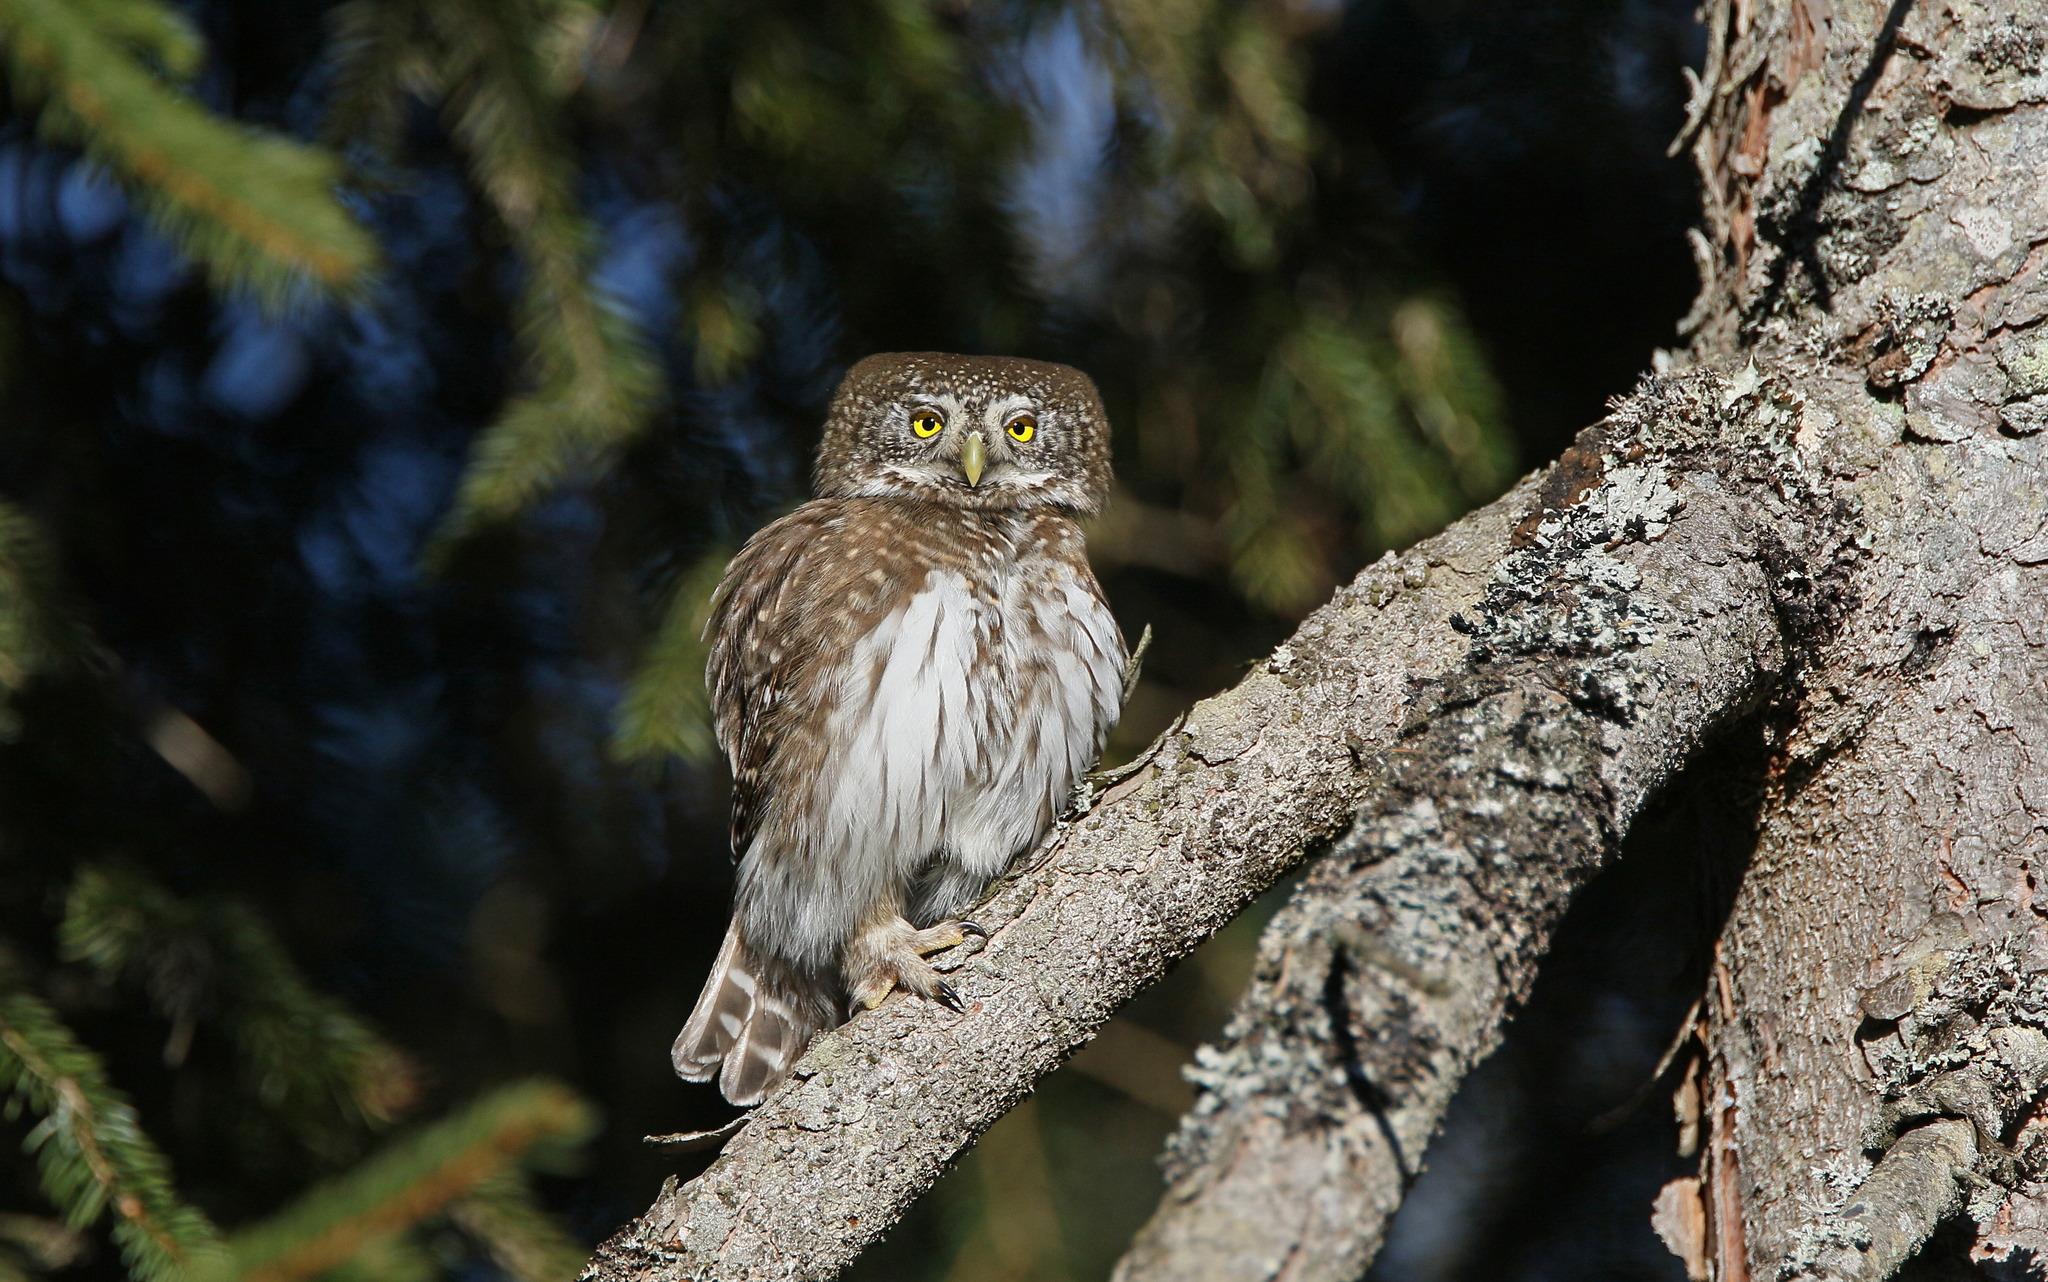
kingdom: Animalia
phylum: Chordata
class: Aves
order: Strigiformes
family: Strigidae
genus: Glaucidium
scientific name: Glaucidium passerinum
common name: Eurasian pygmy owl
